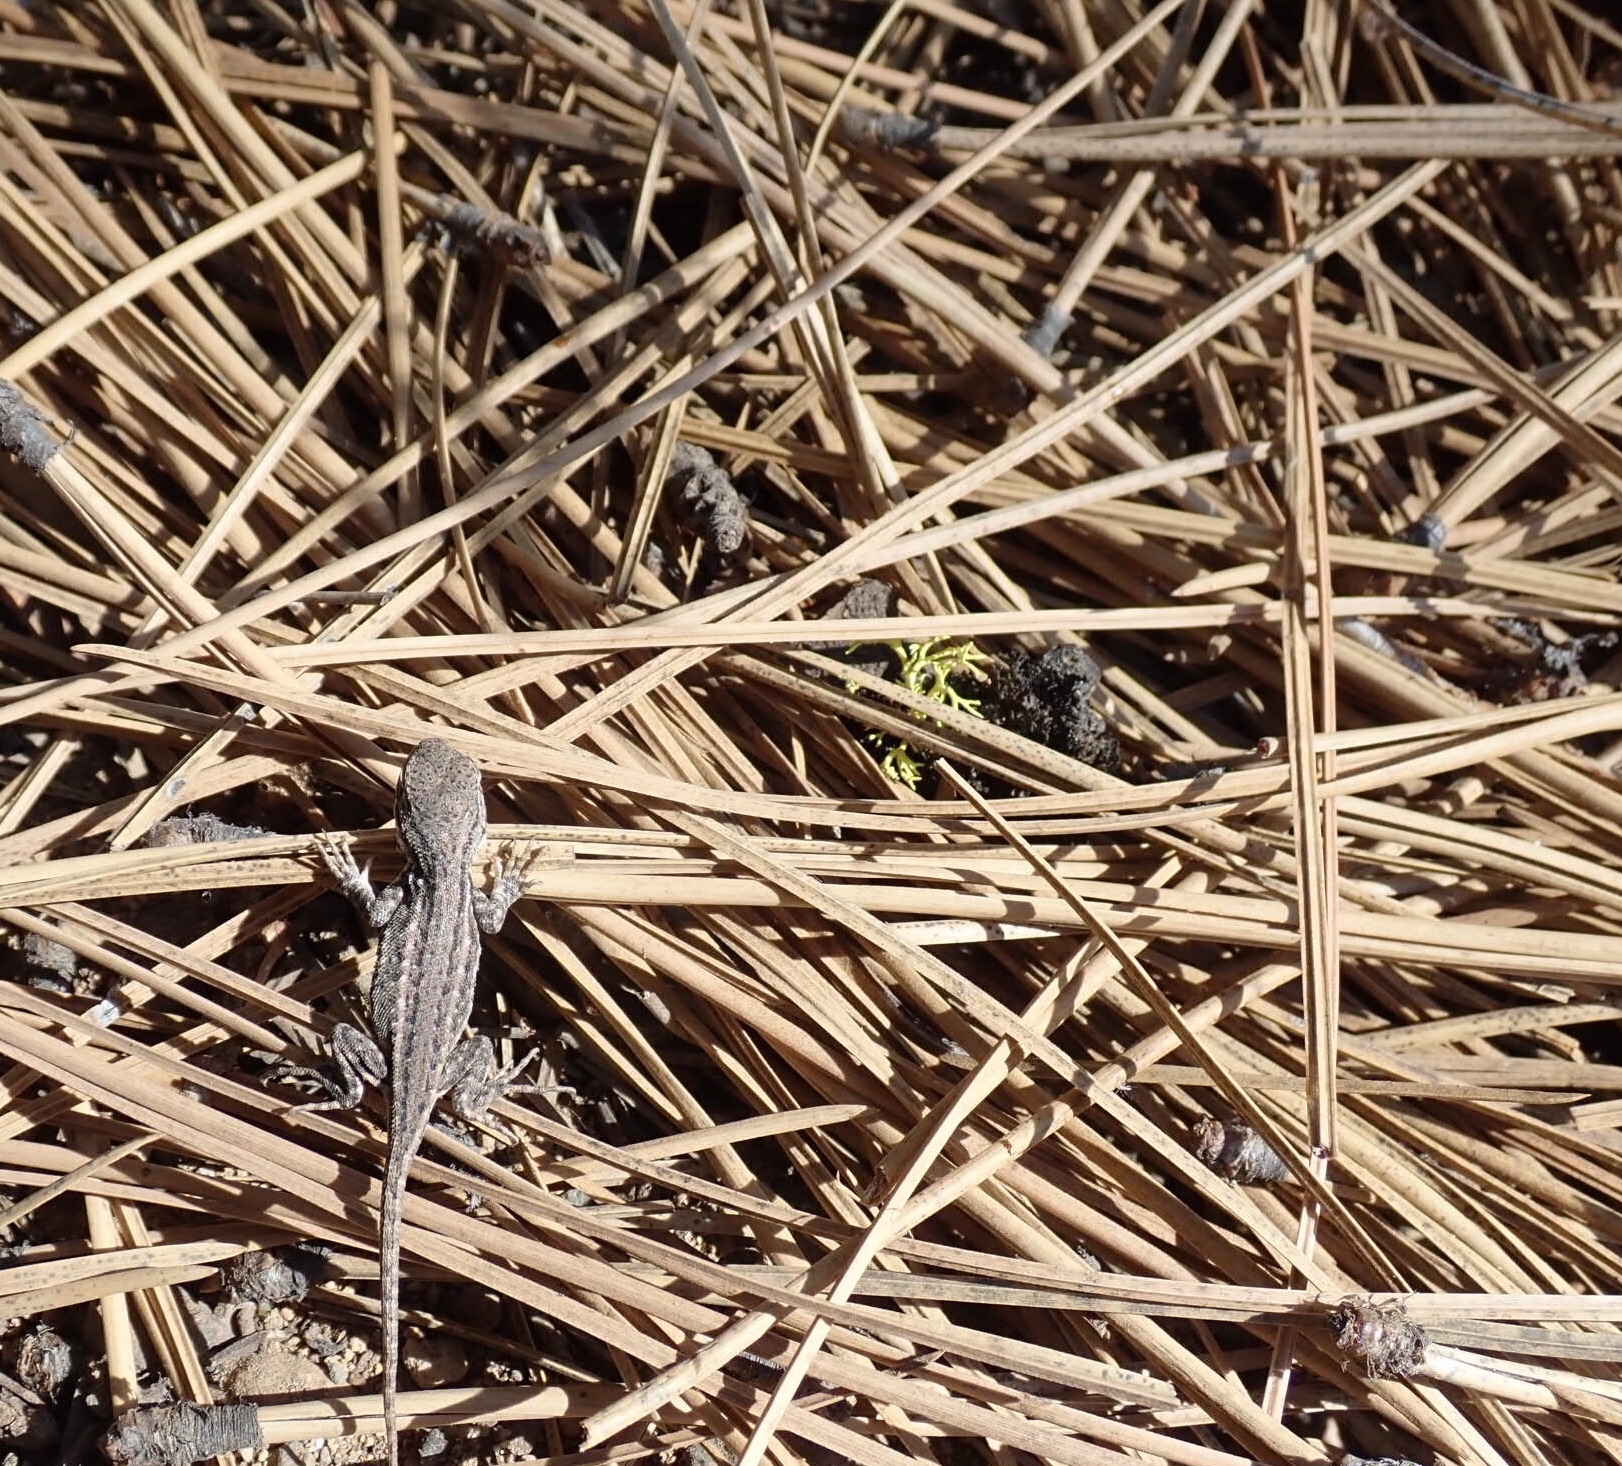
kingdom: Animalia
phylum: Chordata
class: Squamata
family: Phrynosomatidae
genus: Sceloporus
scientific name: Sceloporus graciosus
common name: Sagebrush lizard
